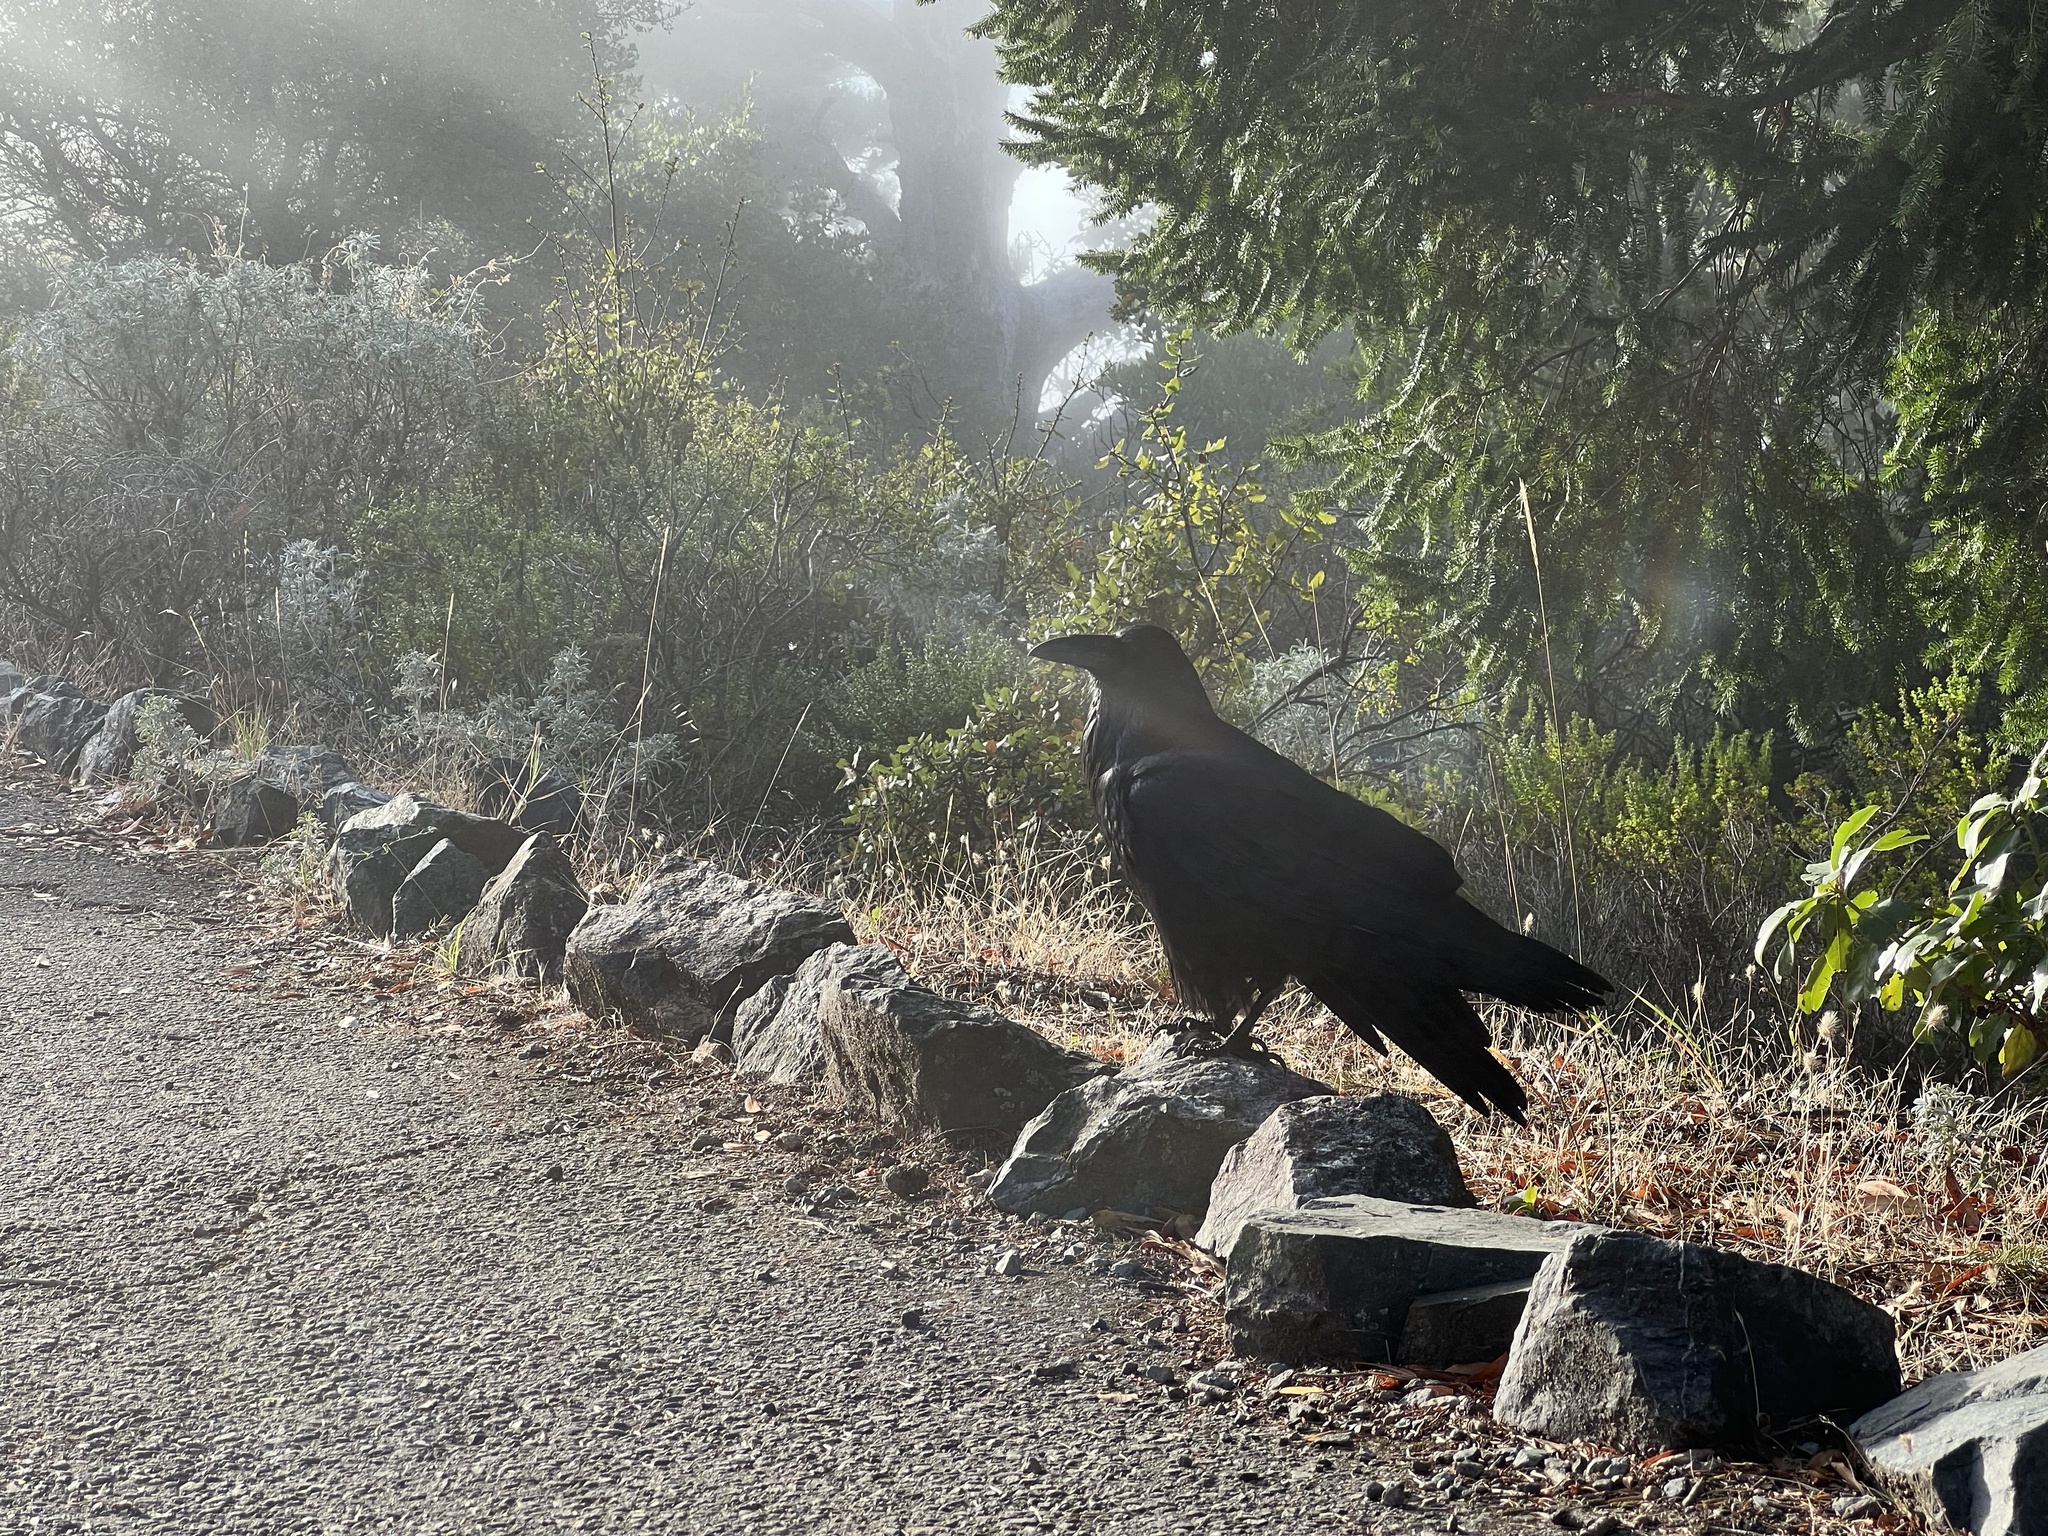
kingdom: Animalia
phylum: Chordata
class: Aves
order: Passeriformes
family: Corvidae
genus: Corvus
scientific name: Corvus corax
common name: Common raven
